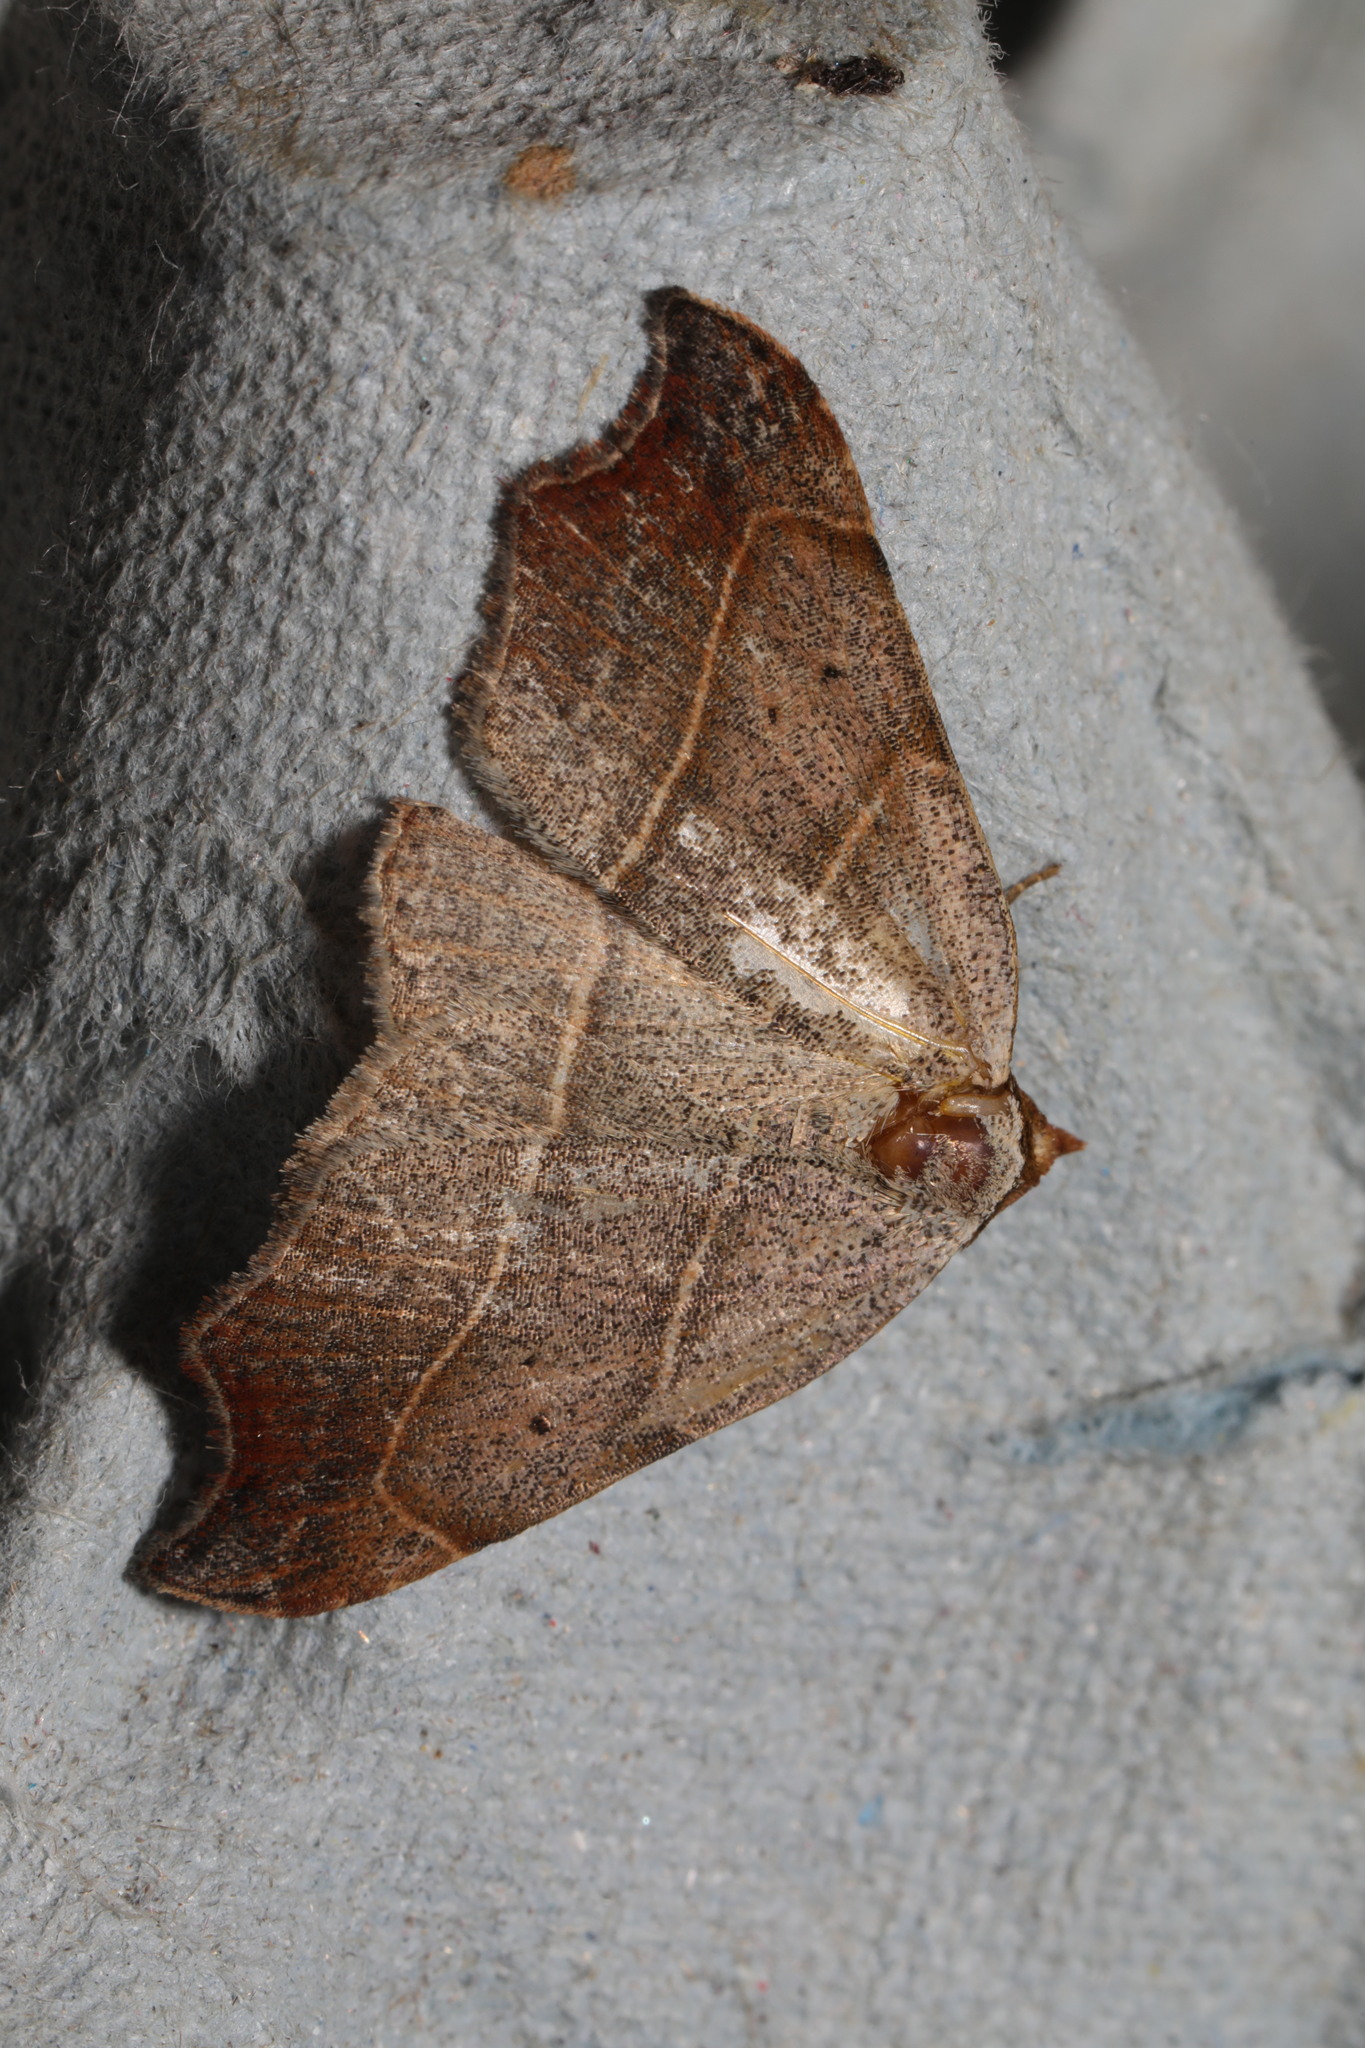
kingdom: Animalia
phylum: Arthropoda
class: Insecta
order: Lepidoptera
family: Erebidae
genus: Laspeyria
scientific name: Laspeyria flexula
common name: Beautiful hook-tip
